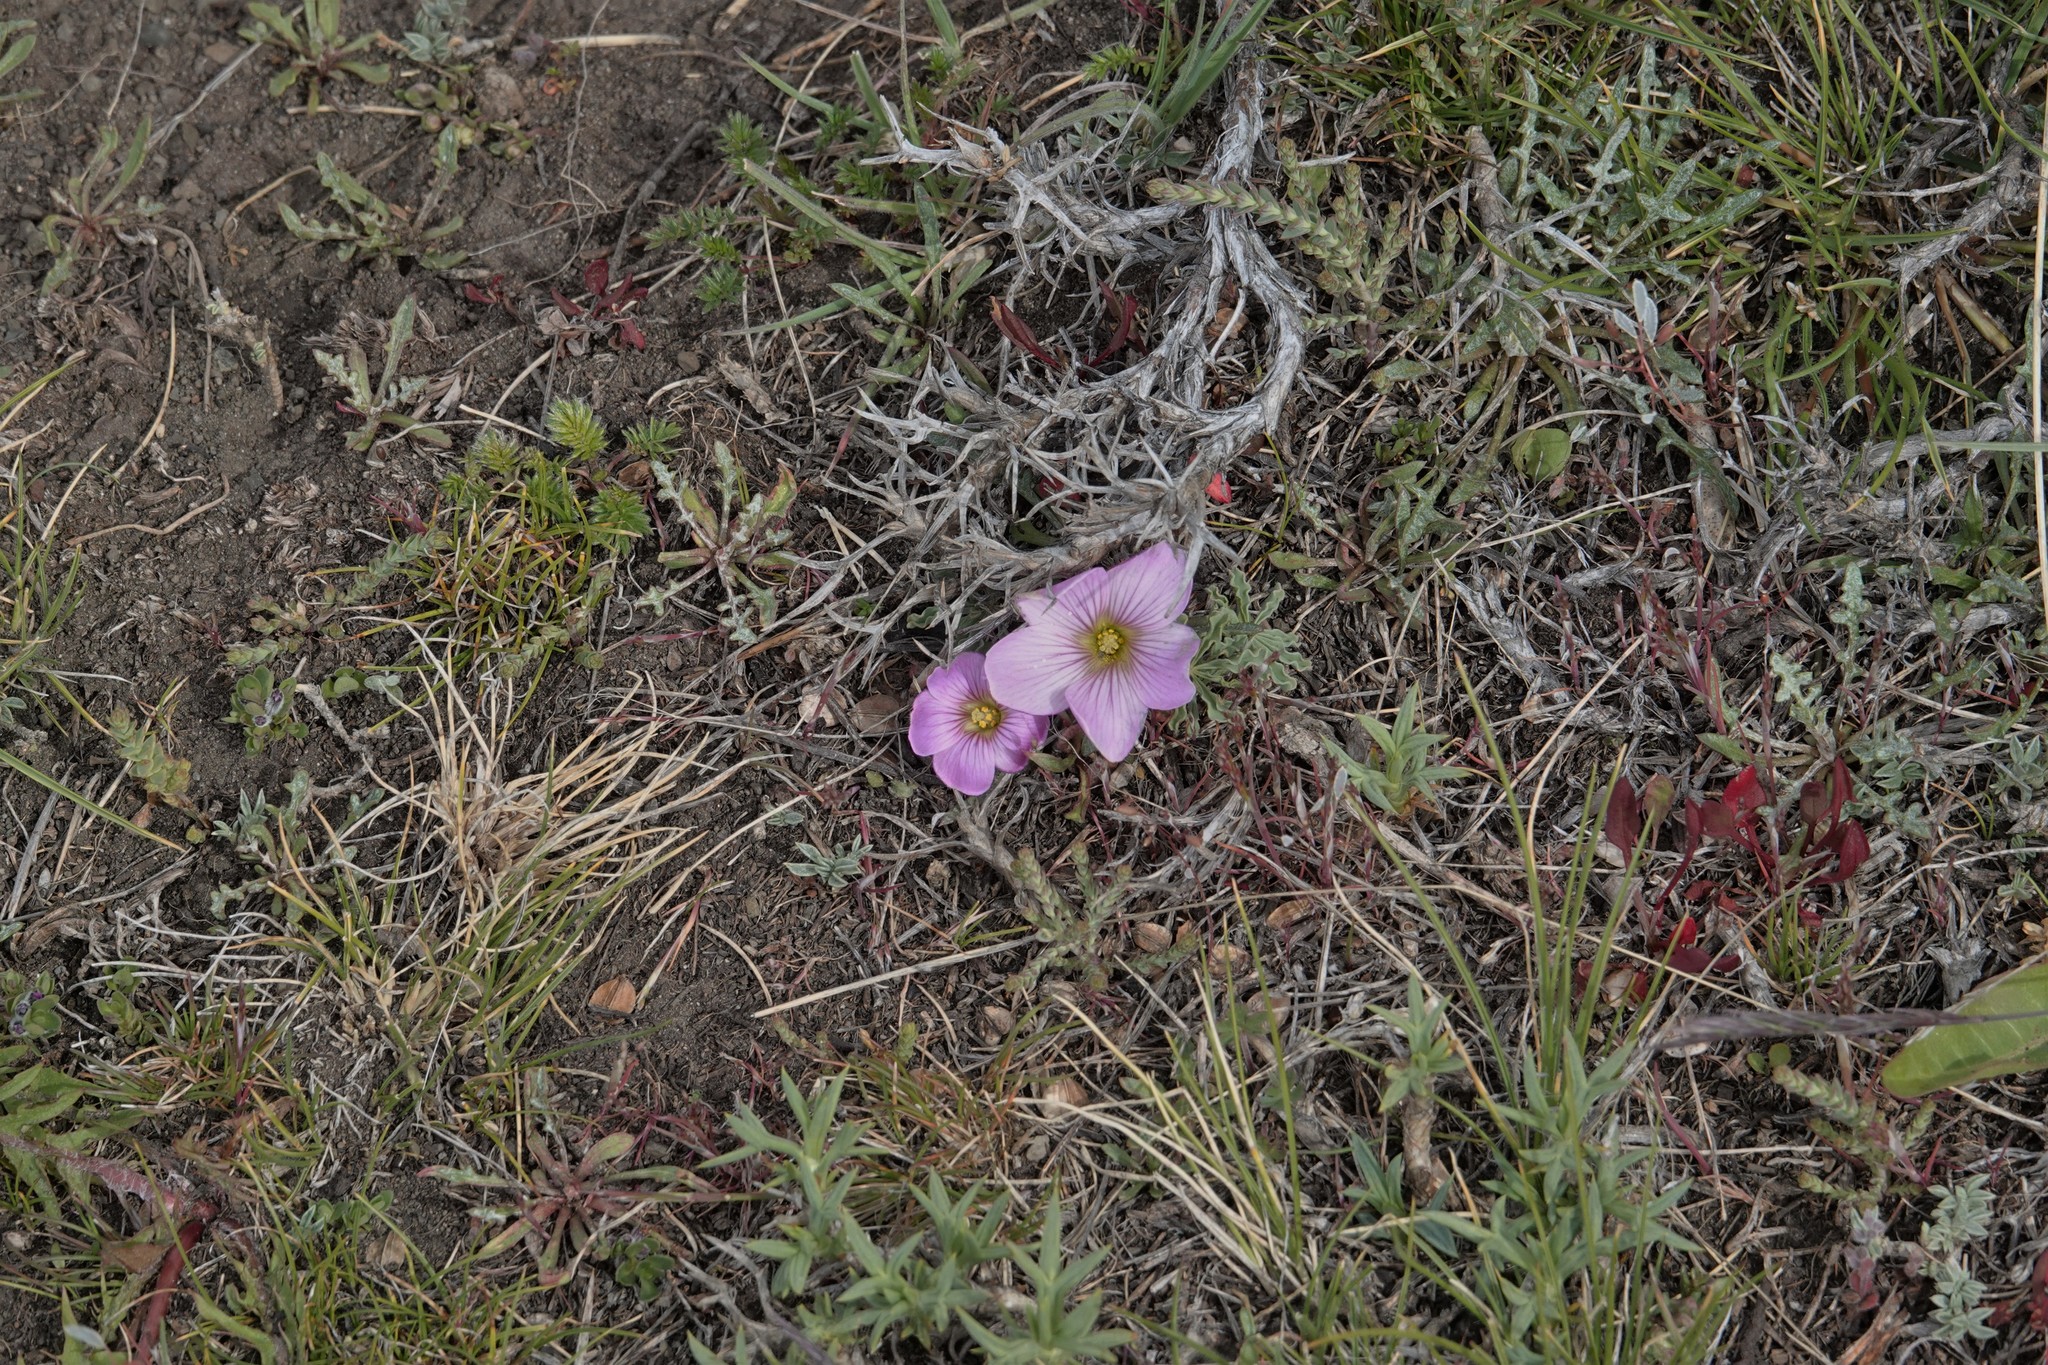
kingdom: Plantae
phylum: Tracheophyta
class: Magnoliopsida
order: Oxalidales
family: Oxalidaceae
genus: Oxalis
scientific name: Oxalis laciniata
